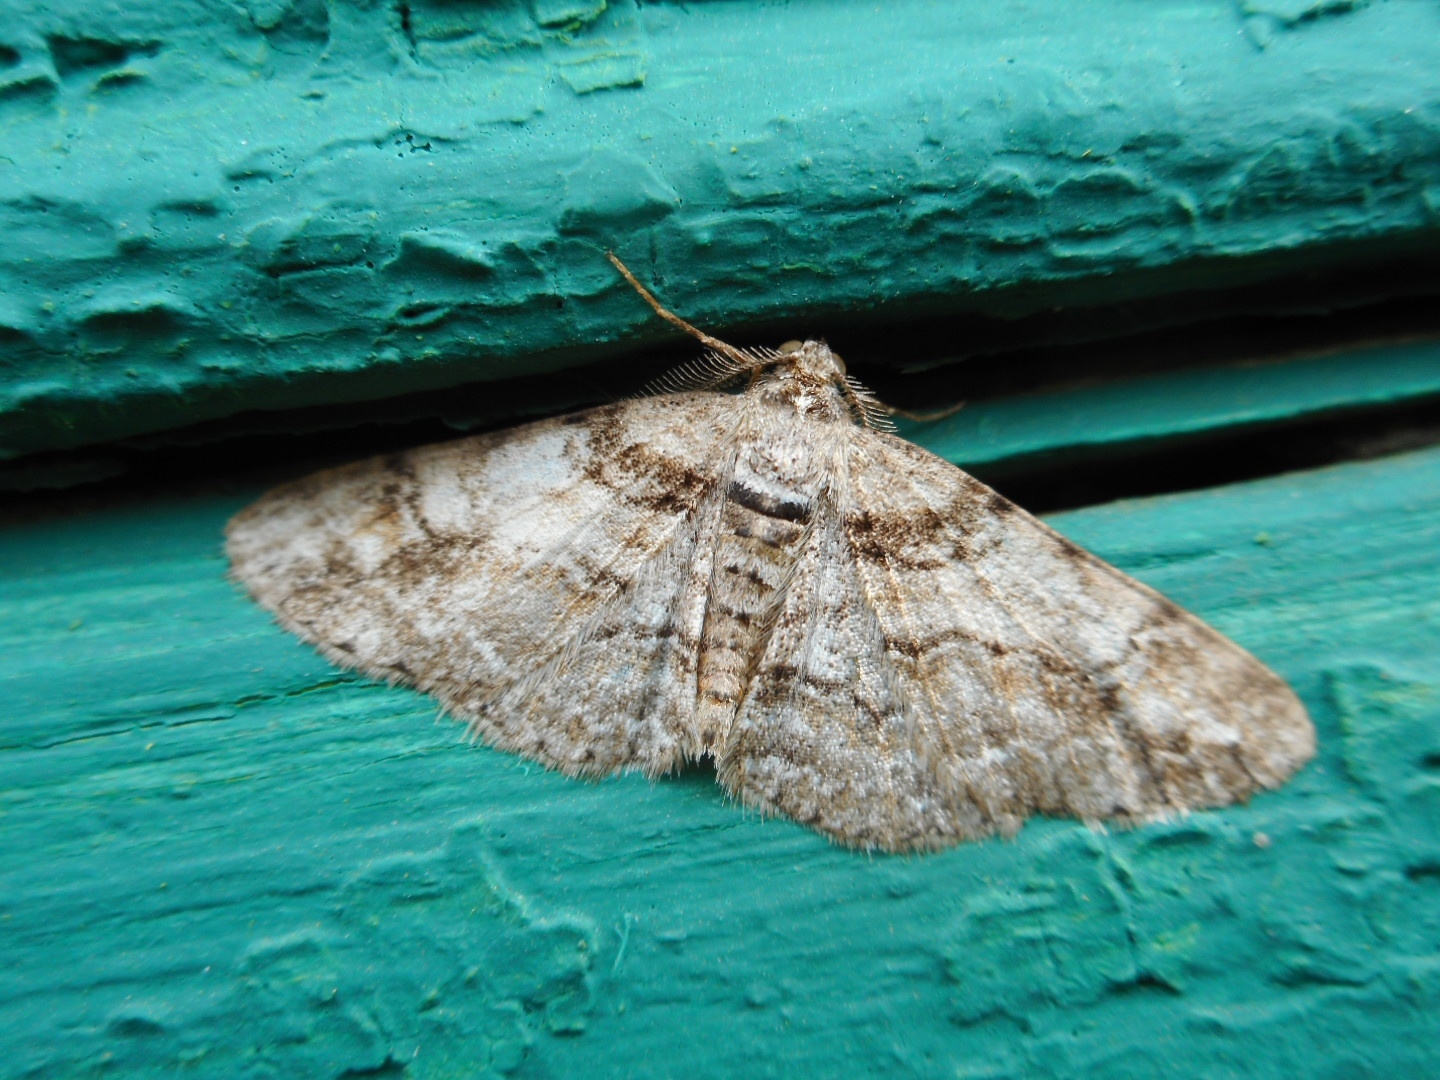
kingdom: Animalia
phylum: Arthropoda
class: Insecta
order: Lepidoptera
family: Geometridae
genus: Cleora
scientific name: Cleora cinctaria
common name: Ringed carpet
